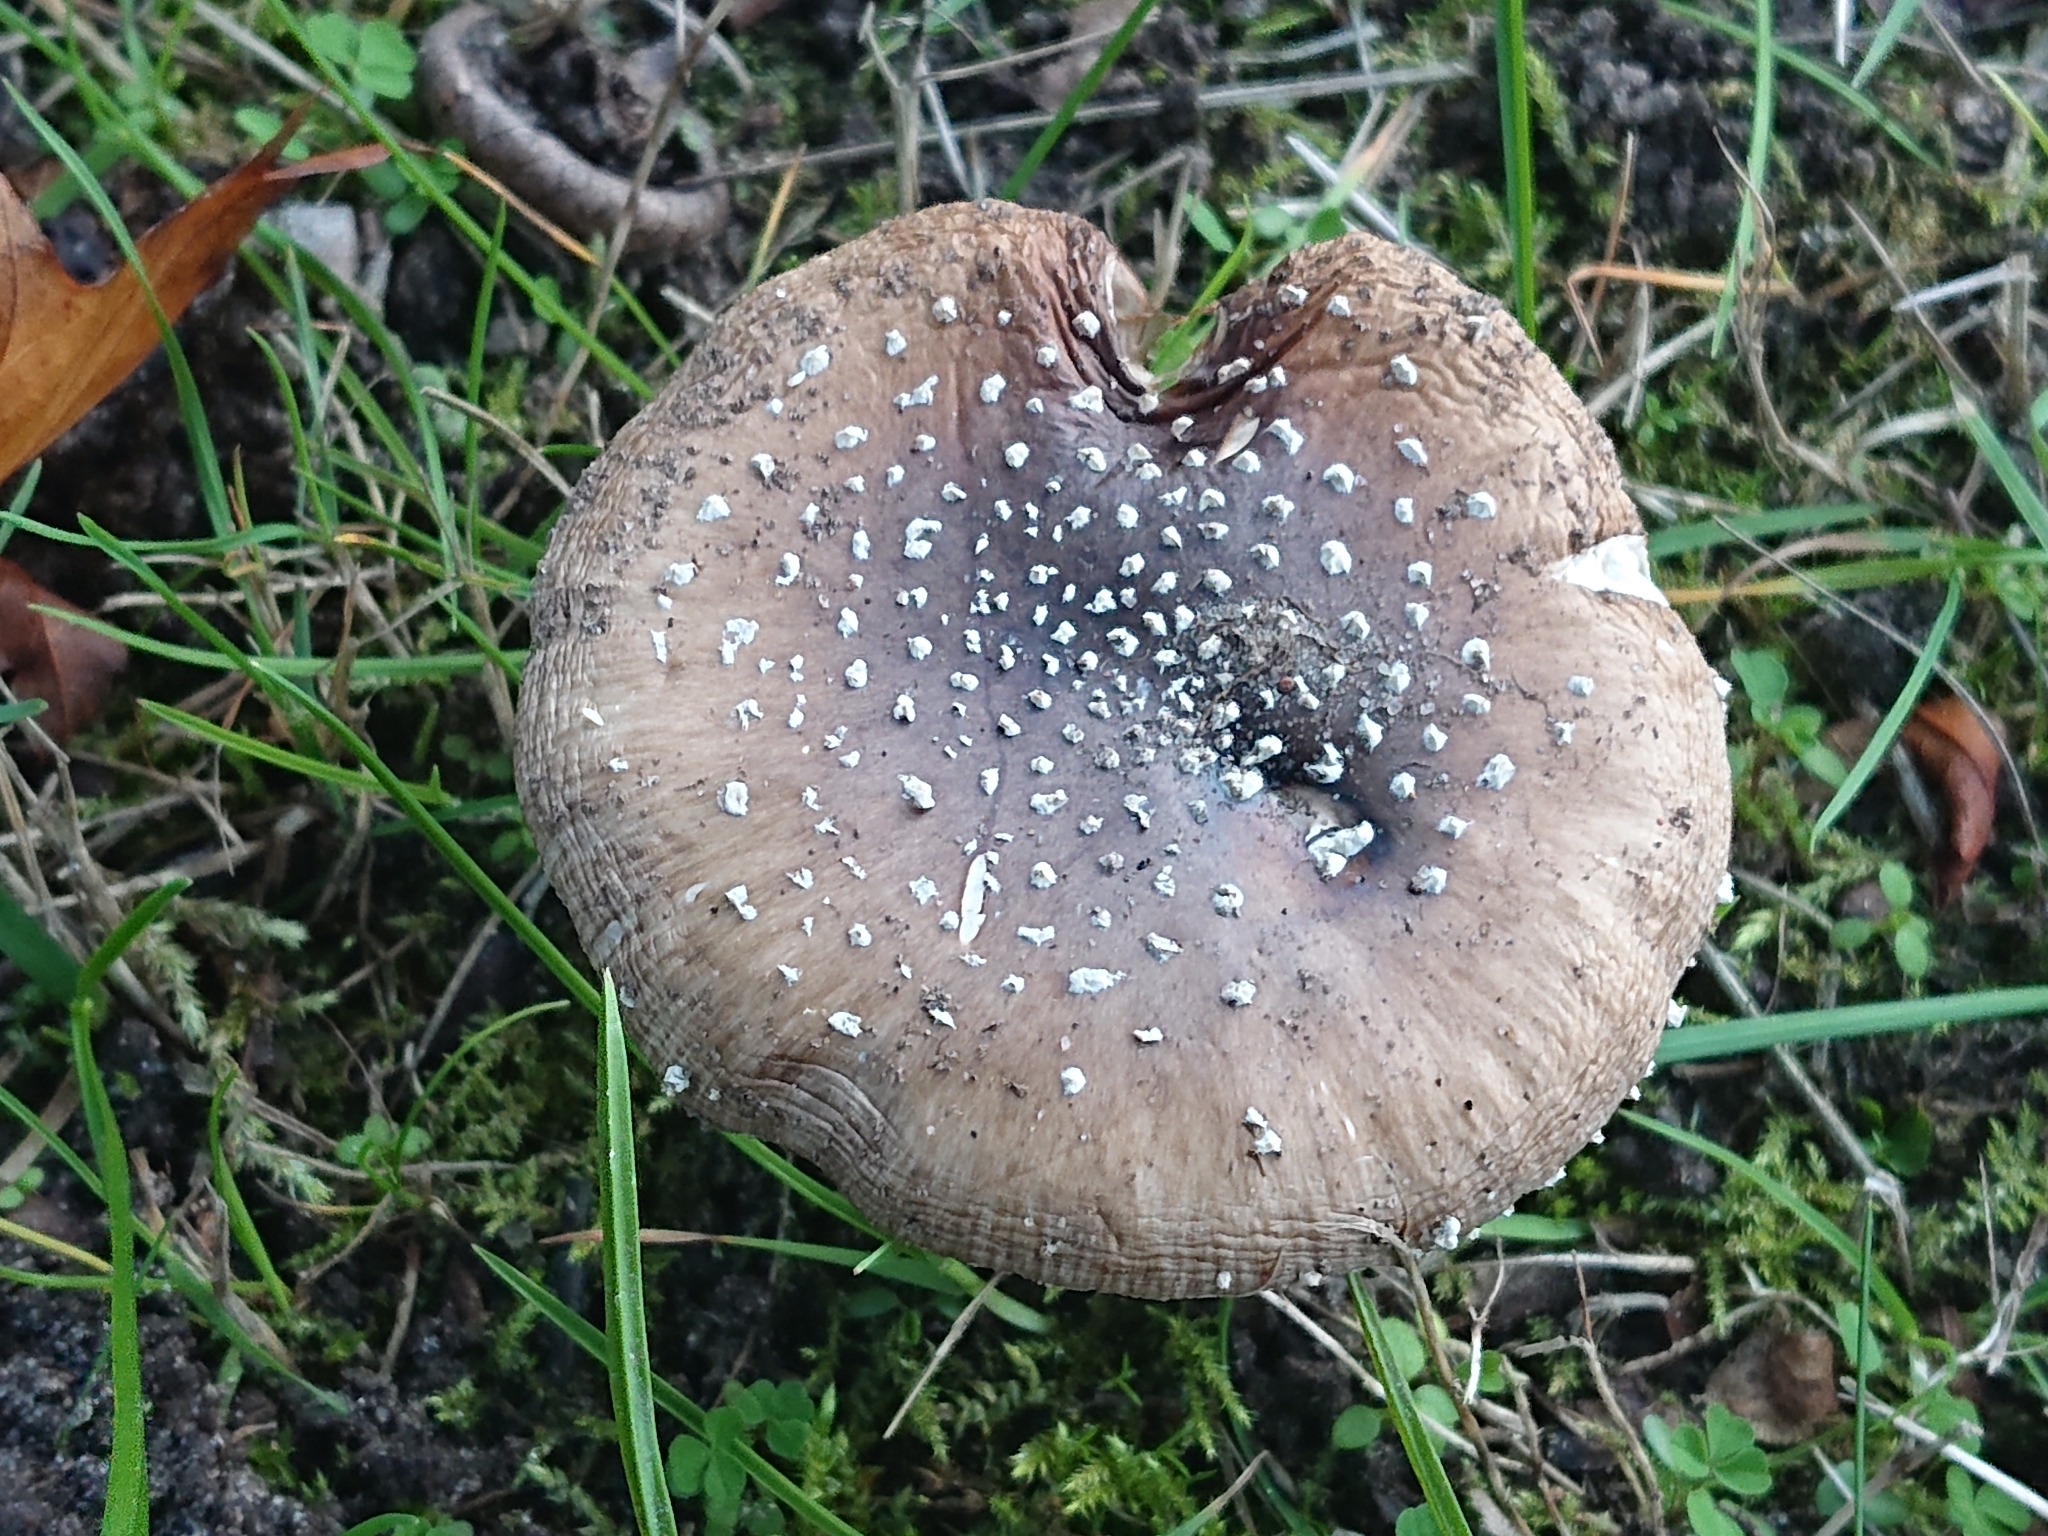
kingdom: Fungi
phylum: Basidiomycota
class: Agaricomycetes
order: Agaricales
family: Amanitaceae
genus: Amanita
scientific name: Amanita pantherina
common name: Panthercap
